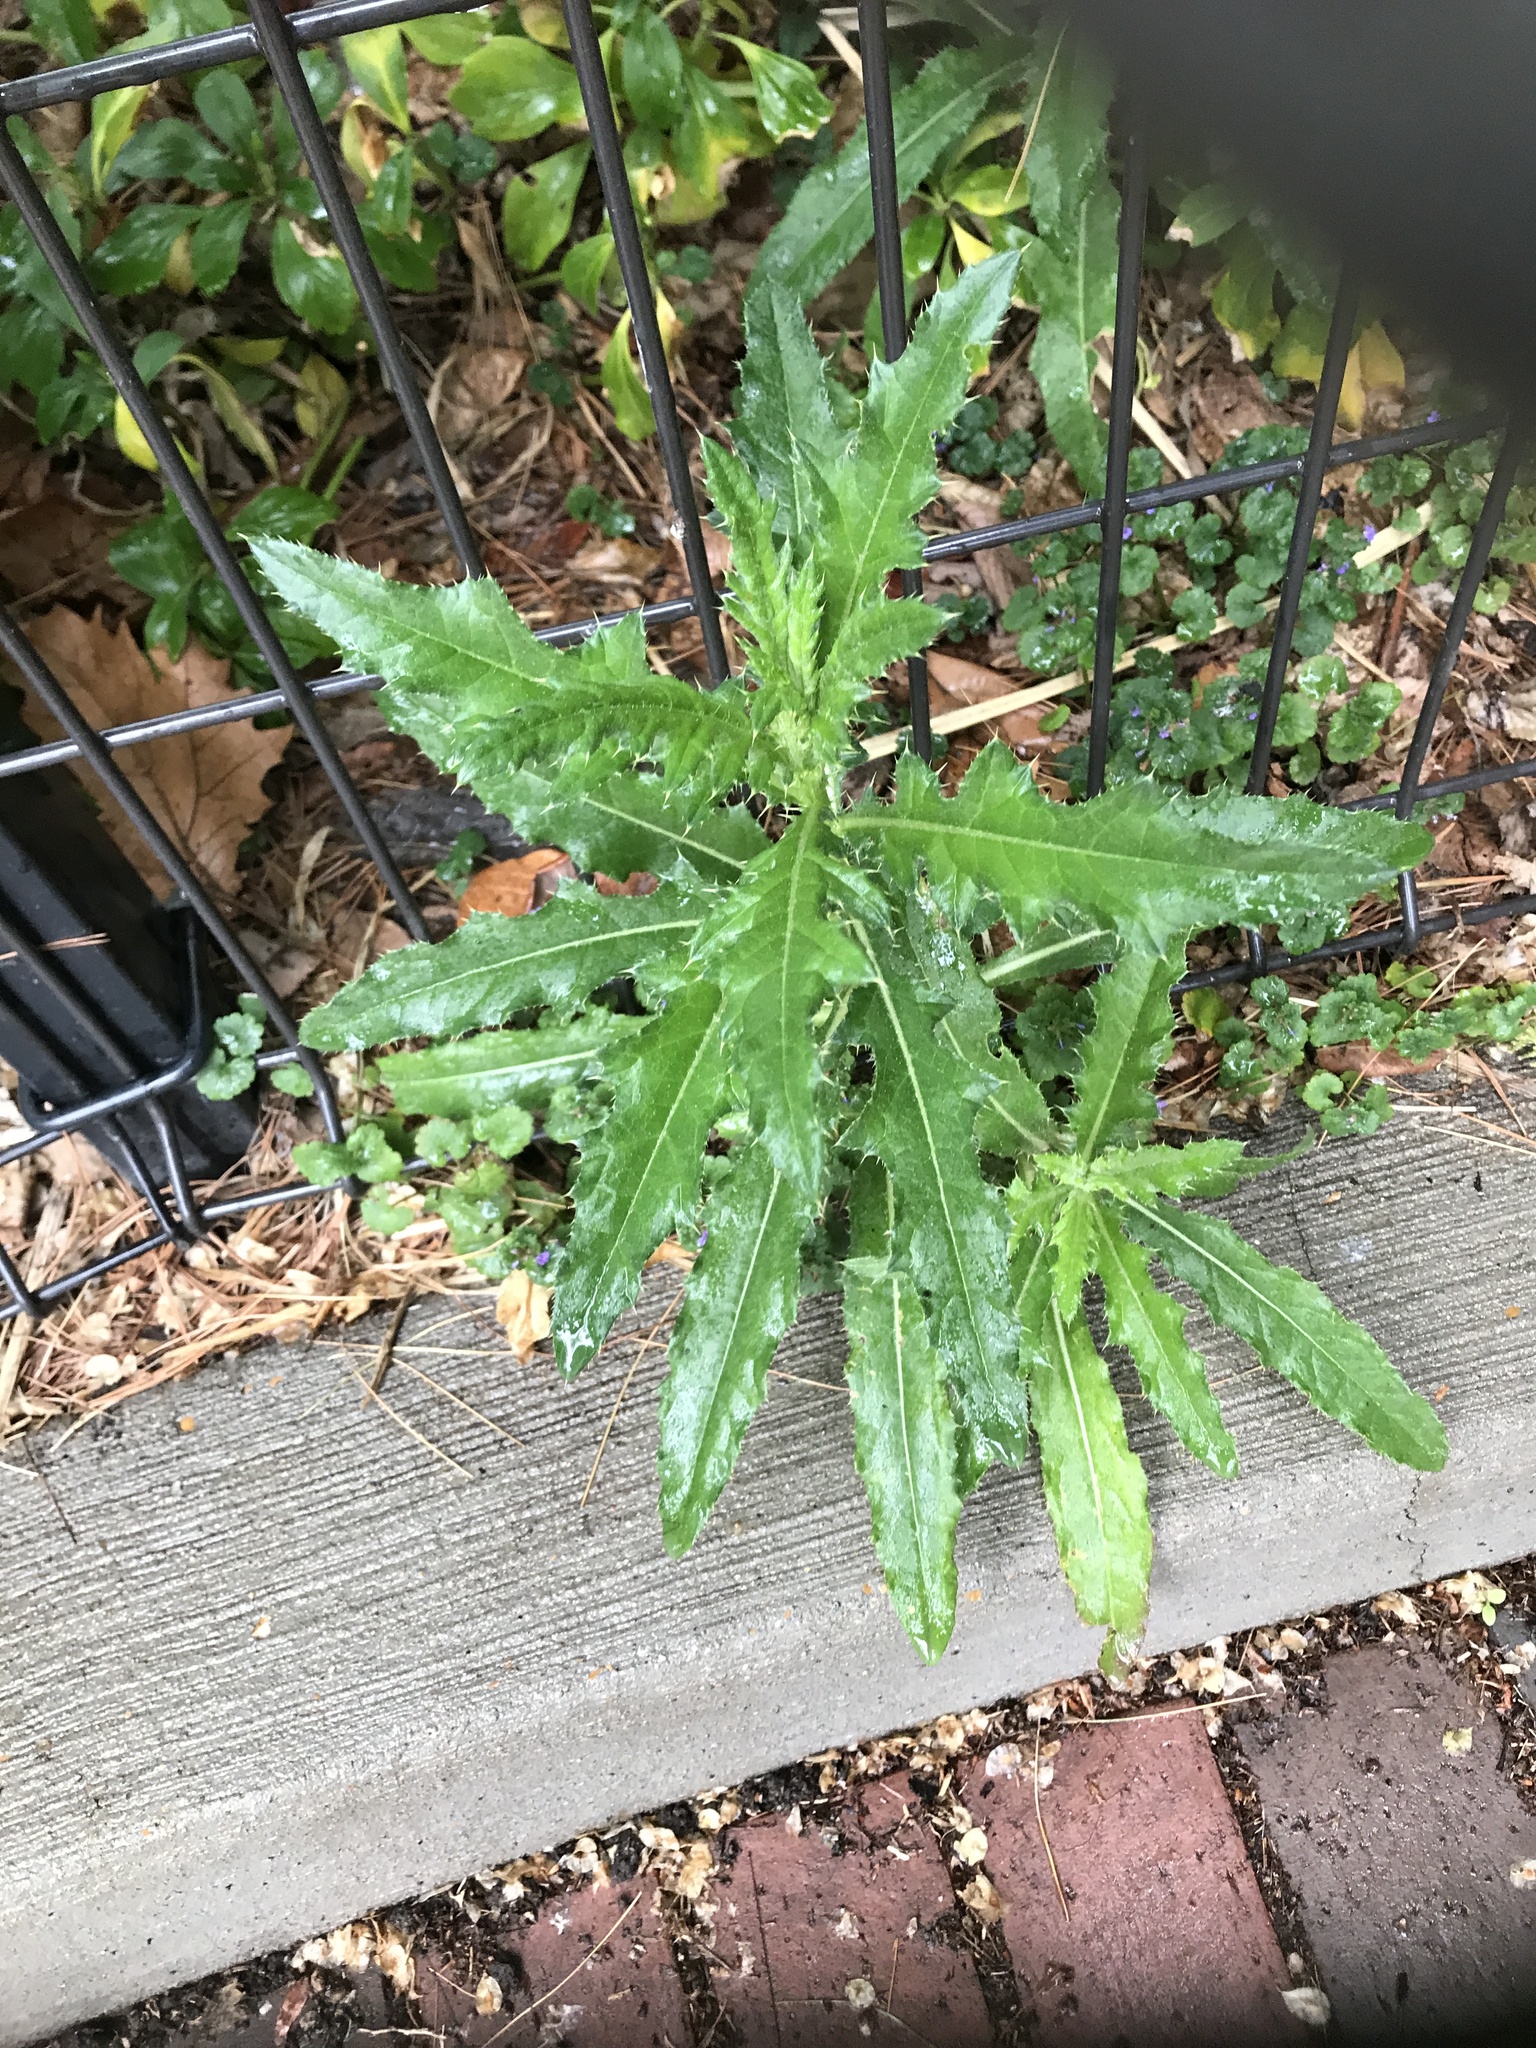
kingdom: Plantae
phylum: Tracheophyta
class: Magnoliopsida
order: Asterales
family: Asteraceae
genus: Cirsium
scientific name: Cirsium arvense
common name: Creeping thistle
